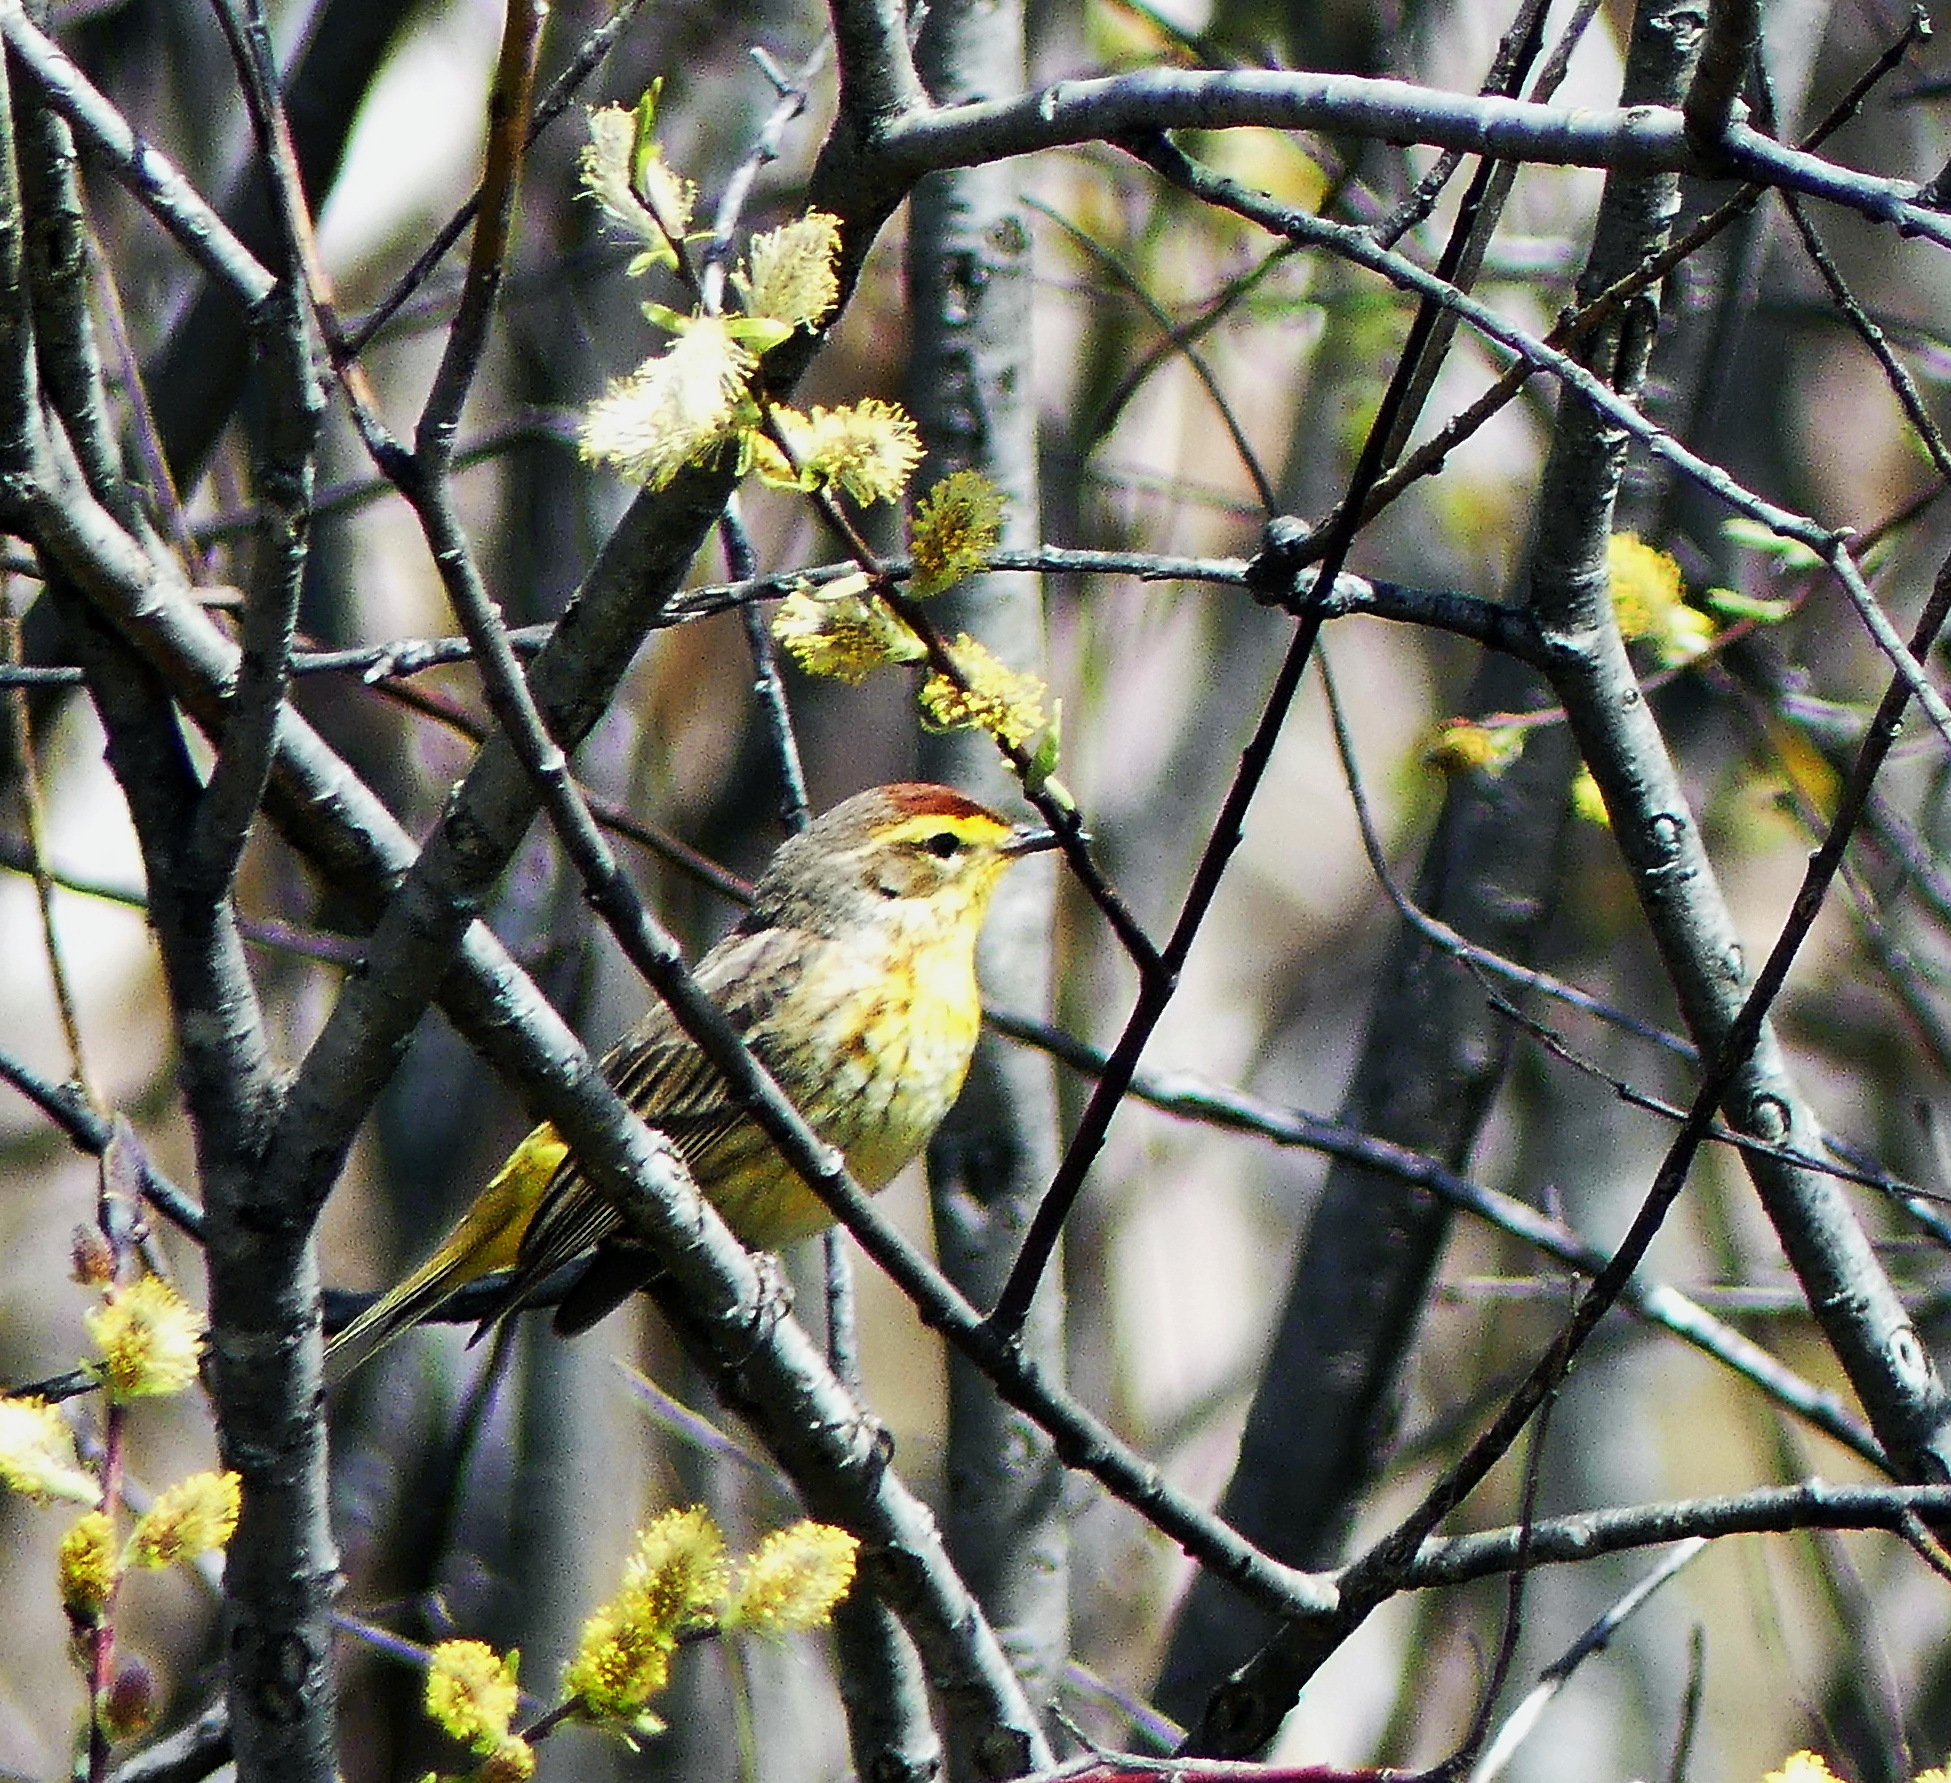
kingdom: Animalia
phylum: Chordata
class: Aves
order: Passeriformes
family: Parulidae
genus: Setophaga
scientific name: Setophaga palmarum
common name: Palm warbler
